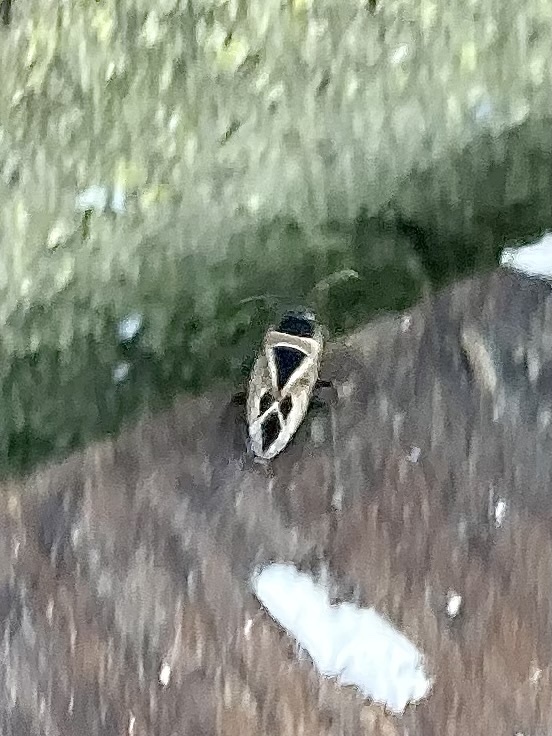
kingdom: Animalia
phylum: Arthropoda
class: Insecta
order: Hemiptera
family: Rhyparochromidae
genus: Xanthochilus
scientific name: Xanthochilus saturnius
